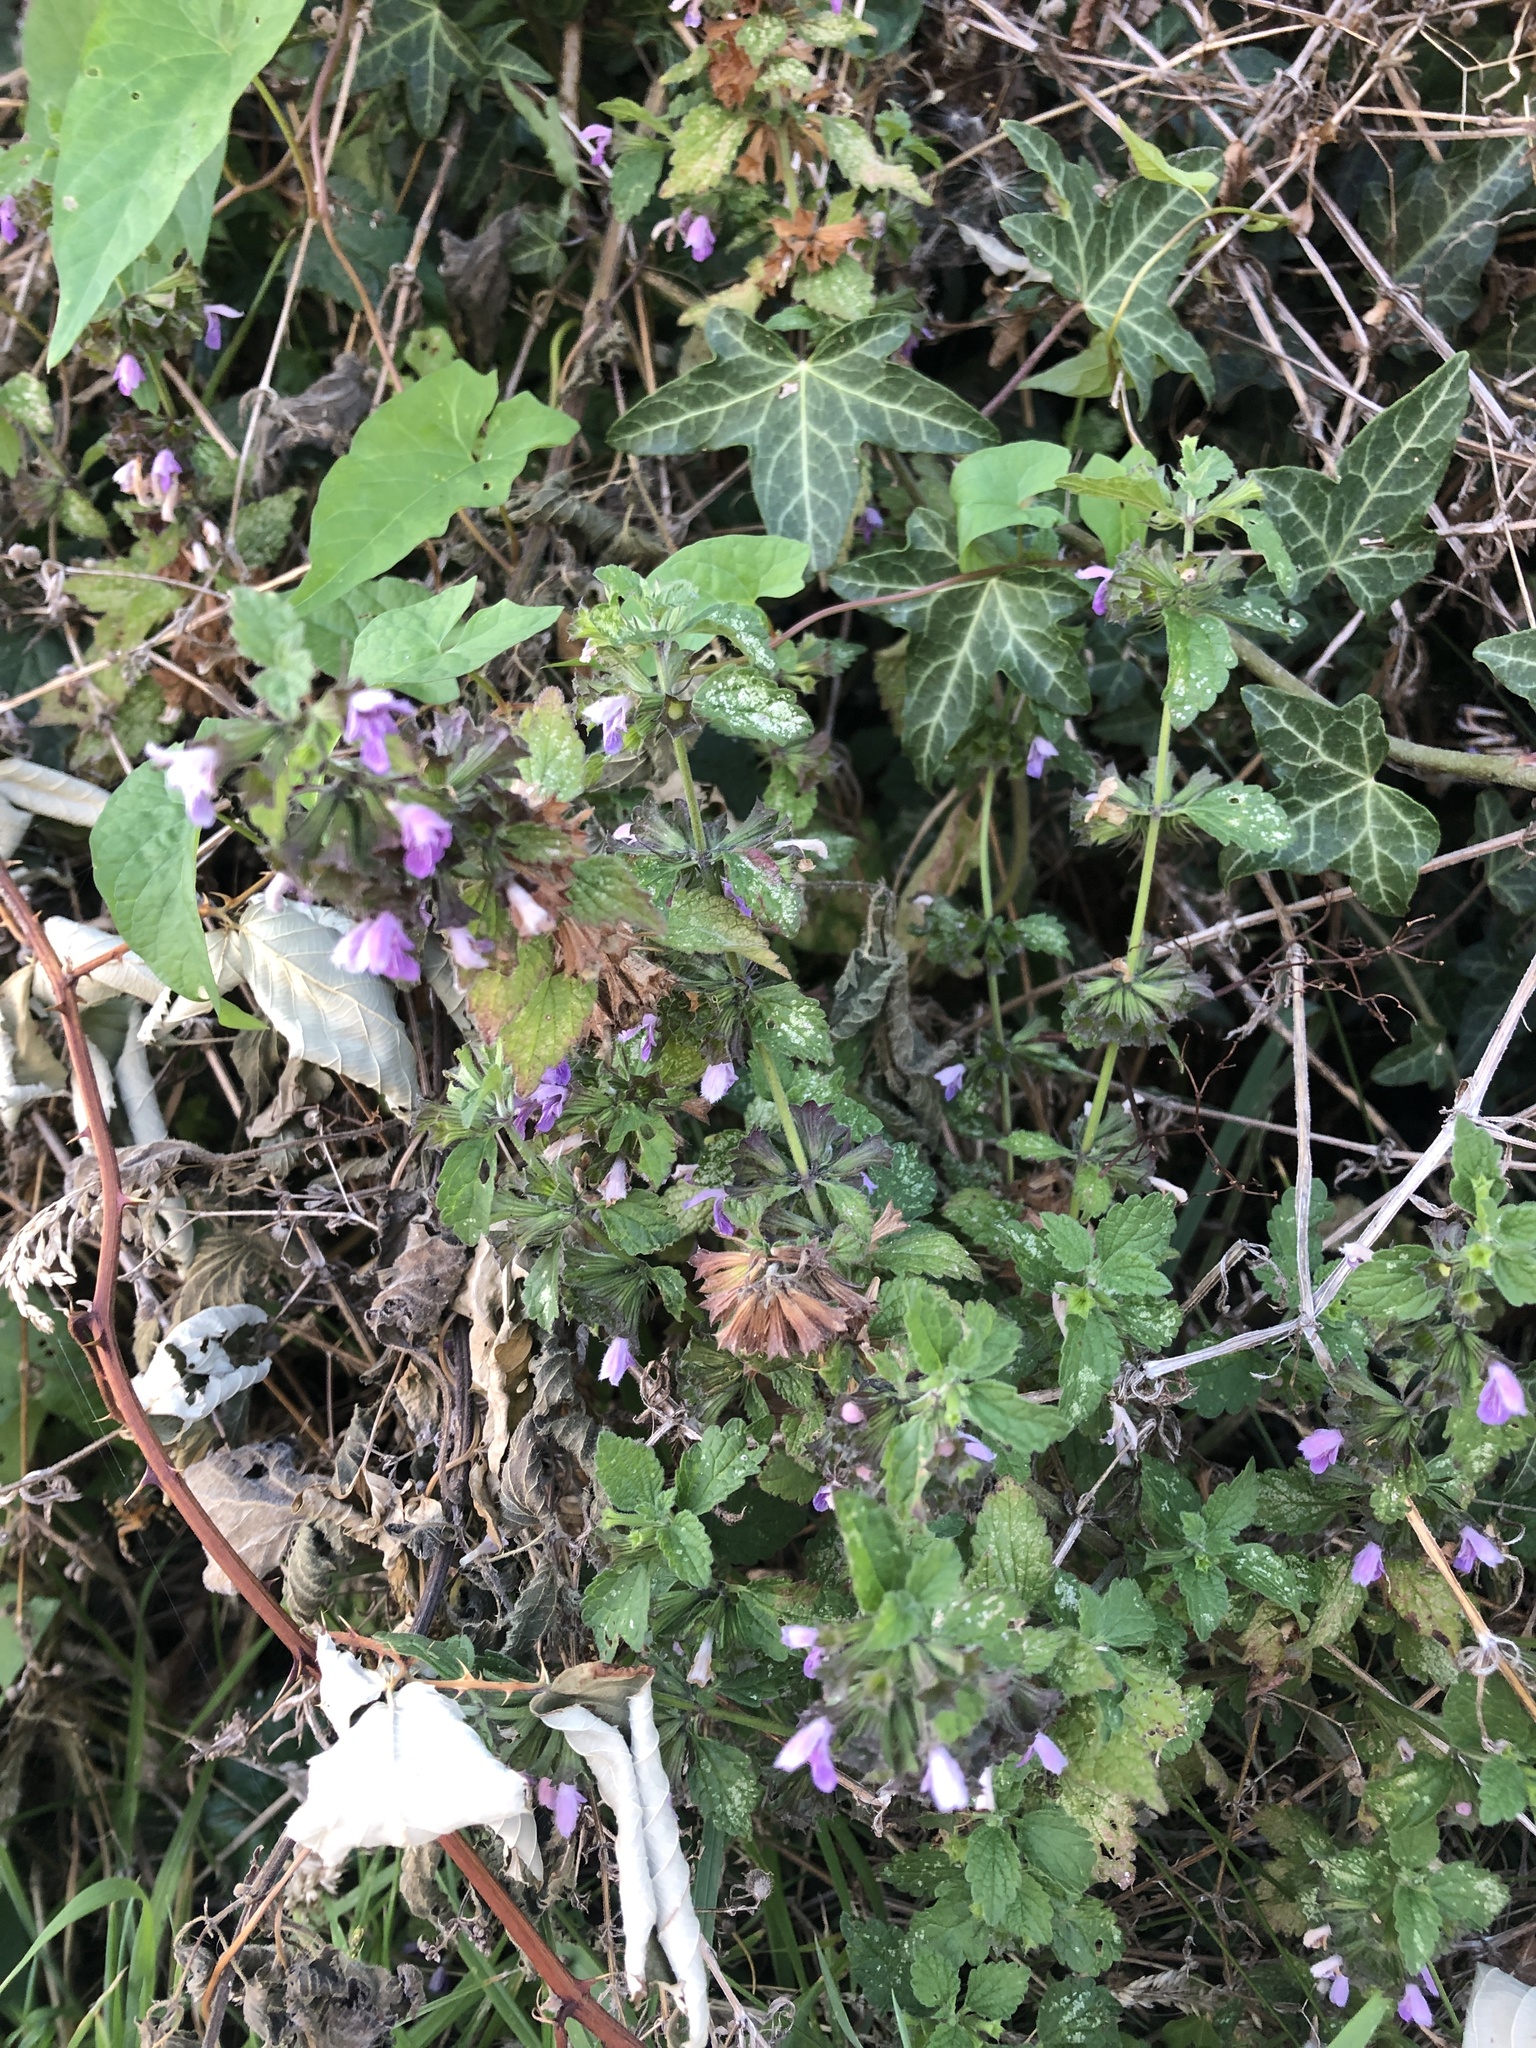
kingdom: Plantae
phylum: Tracheophyta
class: Magnoliopsida
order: Lamiales
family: Lamiaceae
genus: Ballota
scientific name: Ballota nigra
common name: Black horehound
